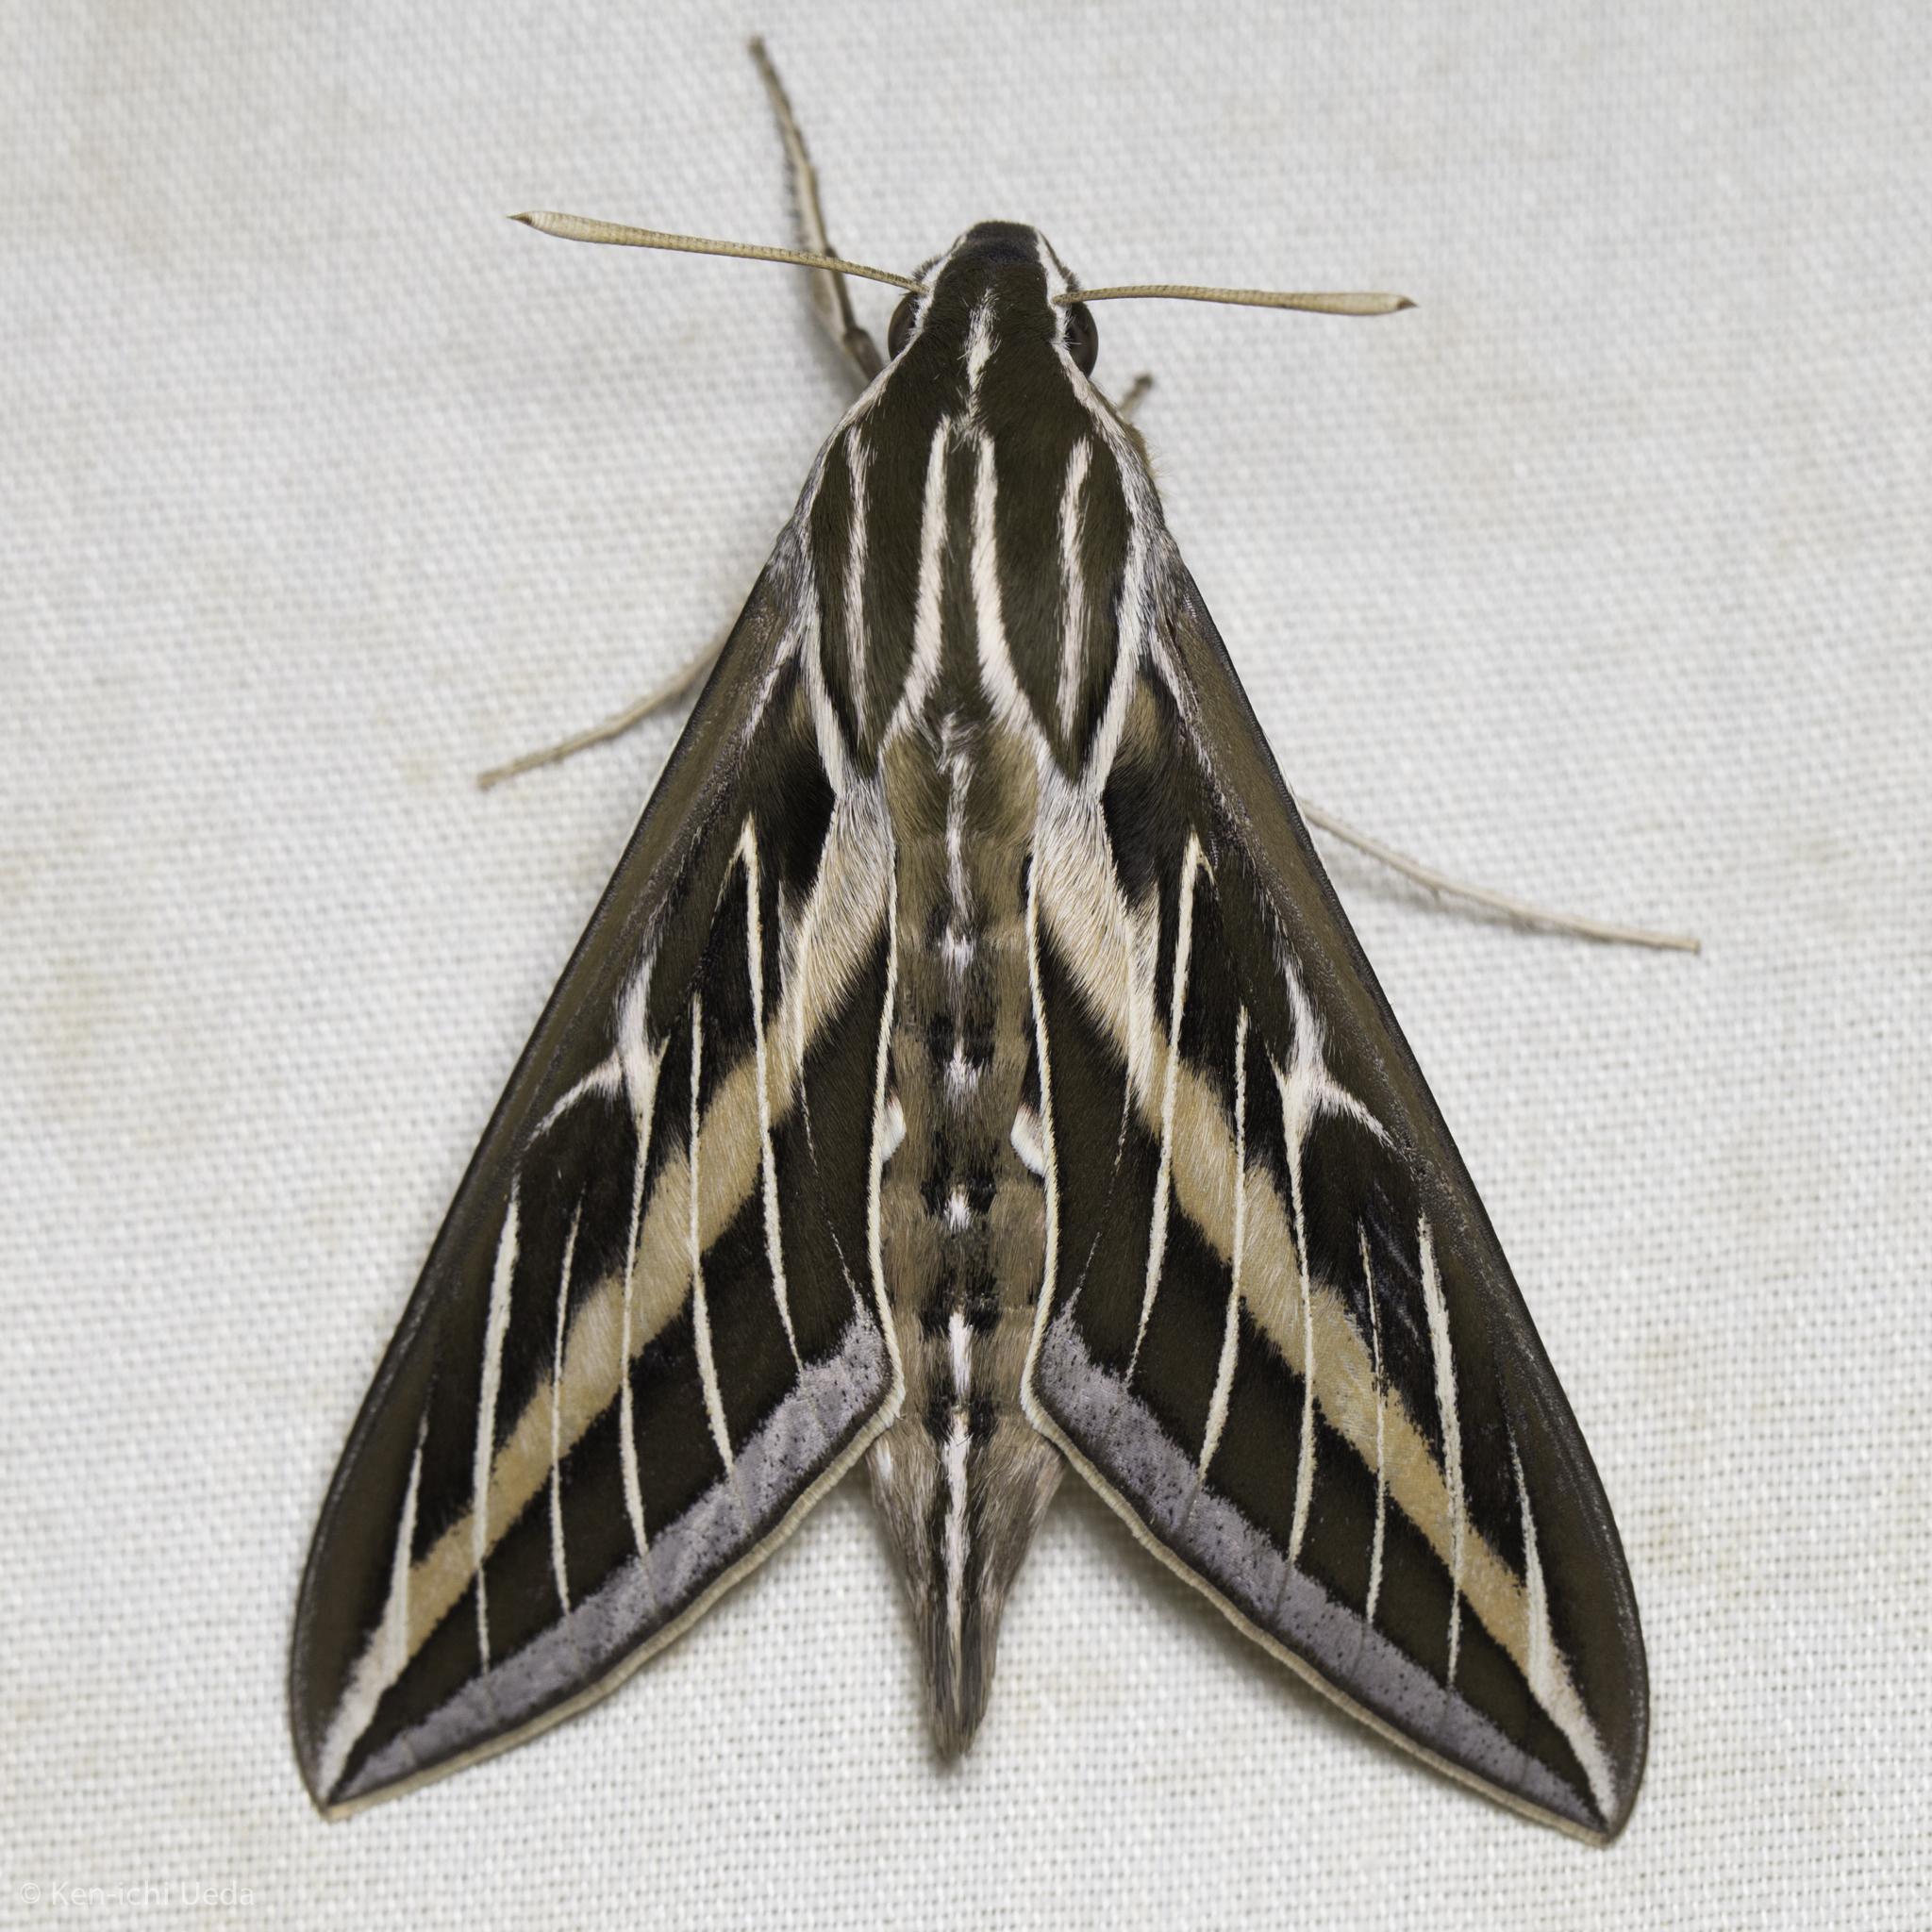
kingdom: Animalia
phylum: Arthropoda
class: Insecta
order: Lepidoptera
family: Sphingidae
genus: Hyles
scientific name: Hyles lineata
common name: White-lined sphinx
